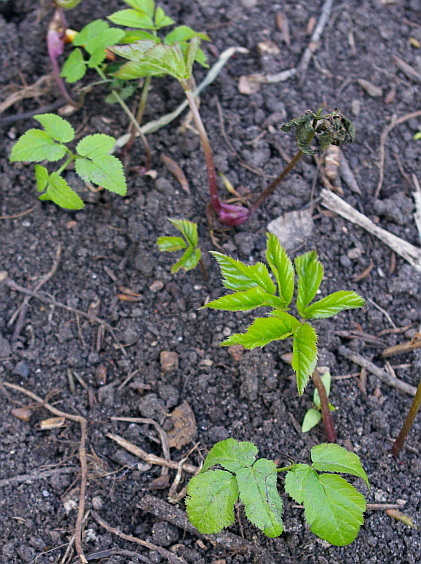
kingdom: Plantae
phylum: Tracheophyta
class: Magnoliopsida
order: Apiales
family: Apiaceae
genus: Aegopodium
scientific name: Aegopodium podagraria
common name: Ground-elder
